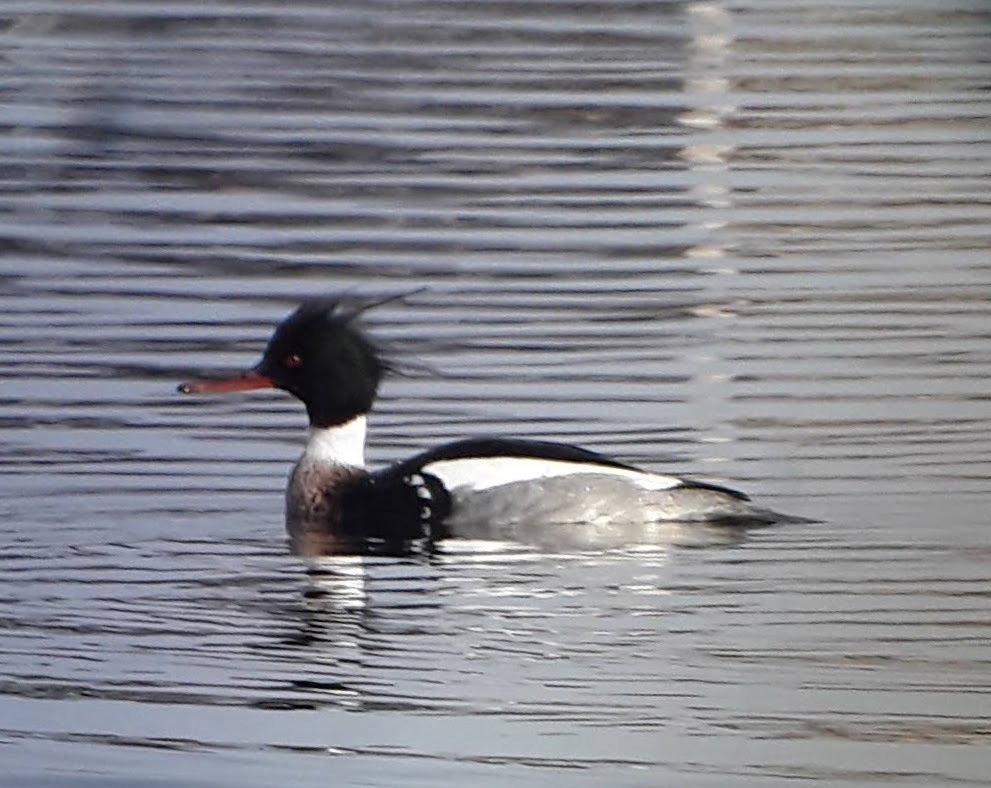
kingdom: Animalia
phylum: Chordata
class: Aves
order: Anseriformes
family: Anatidae
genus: Mergus
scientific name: Mergus serrator
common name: Red-breasted merganser
